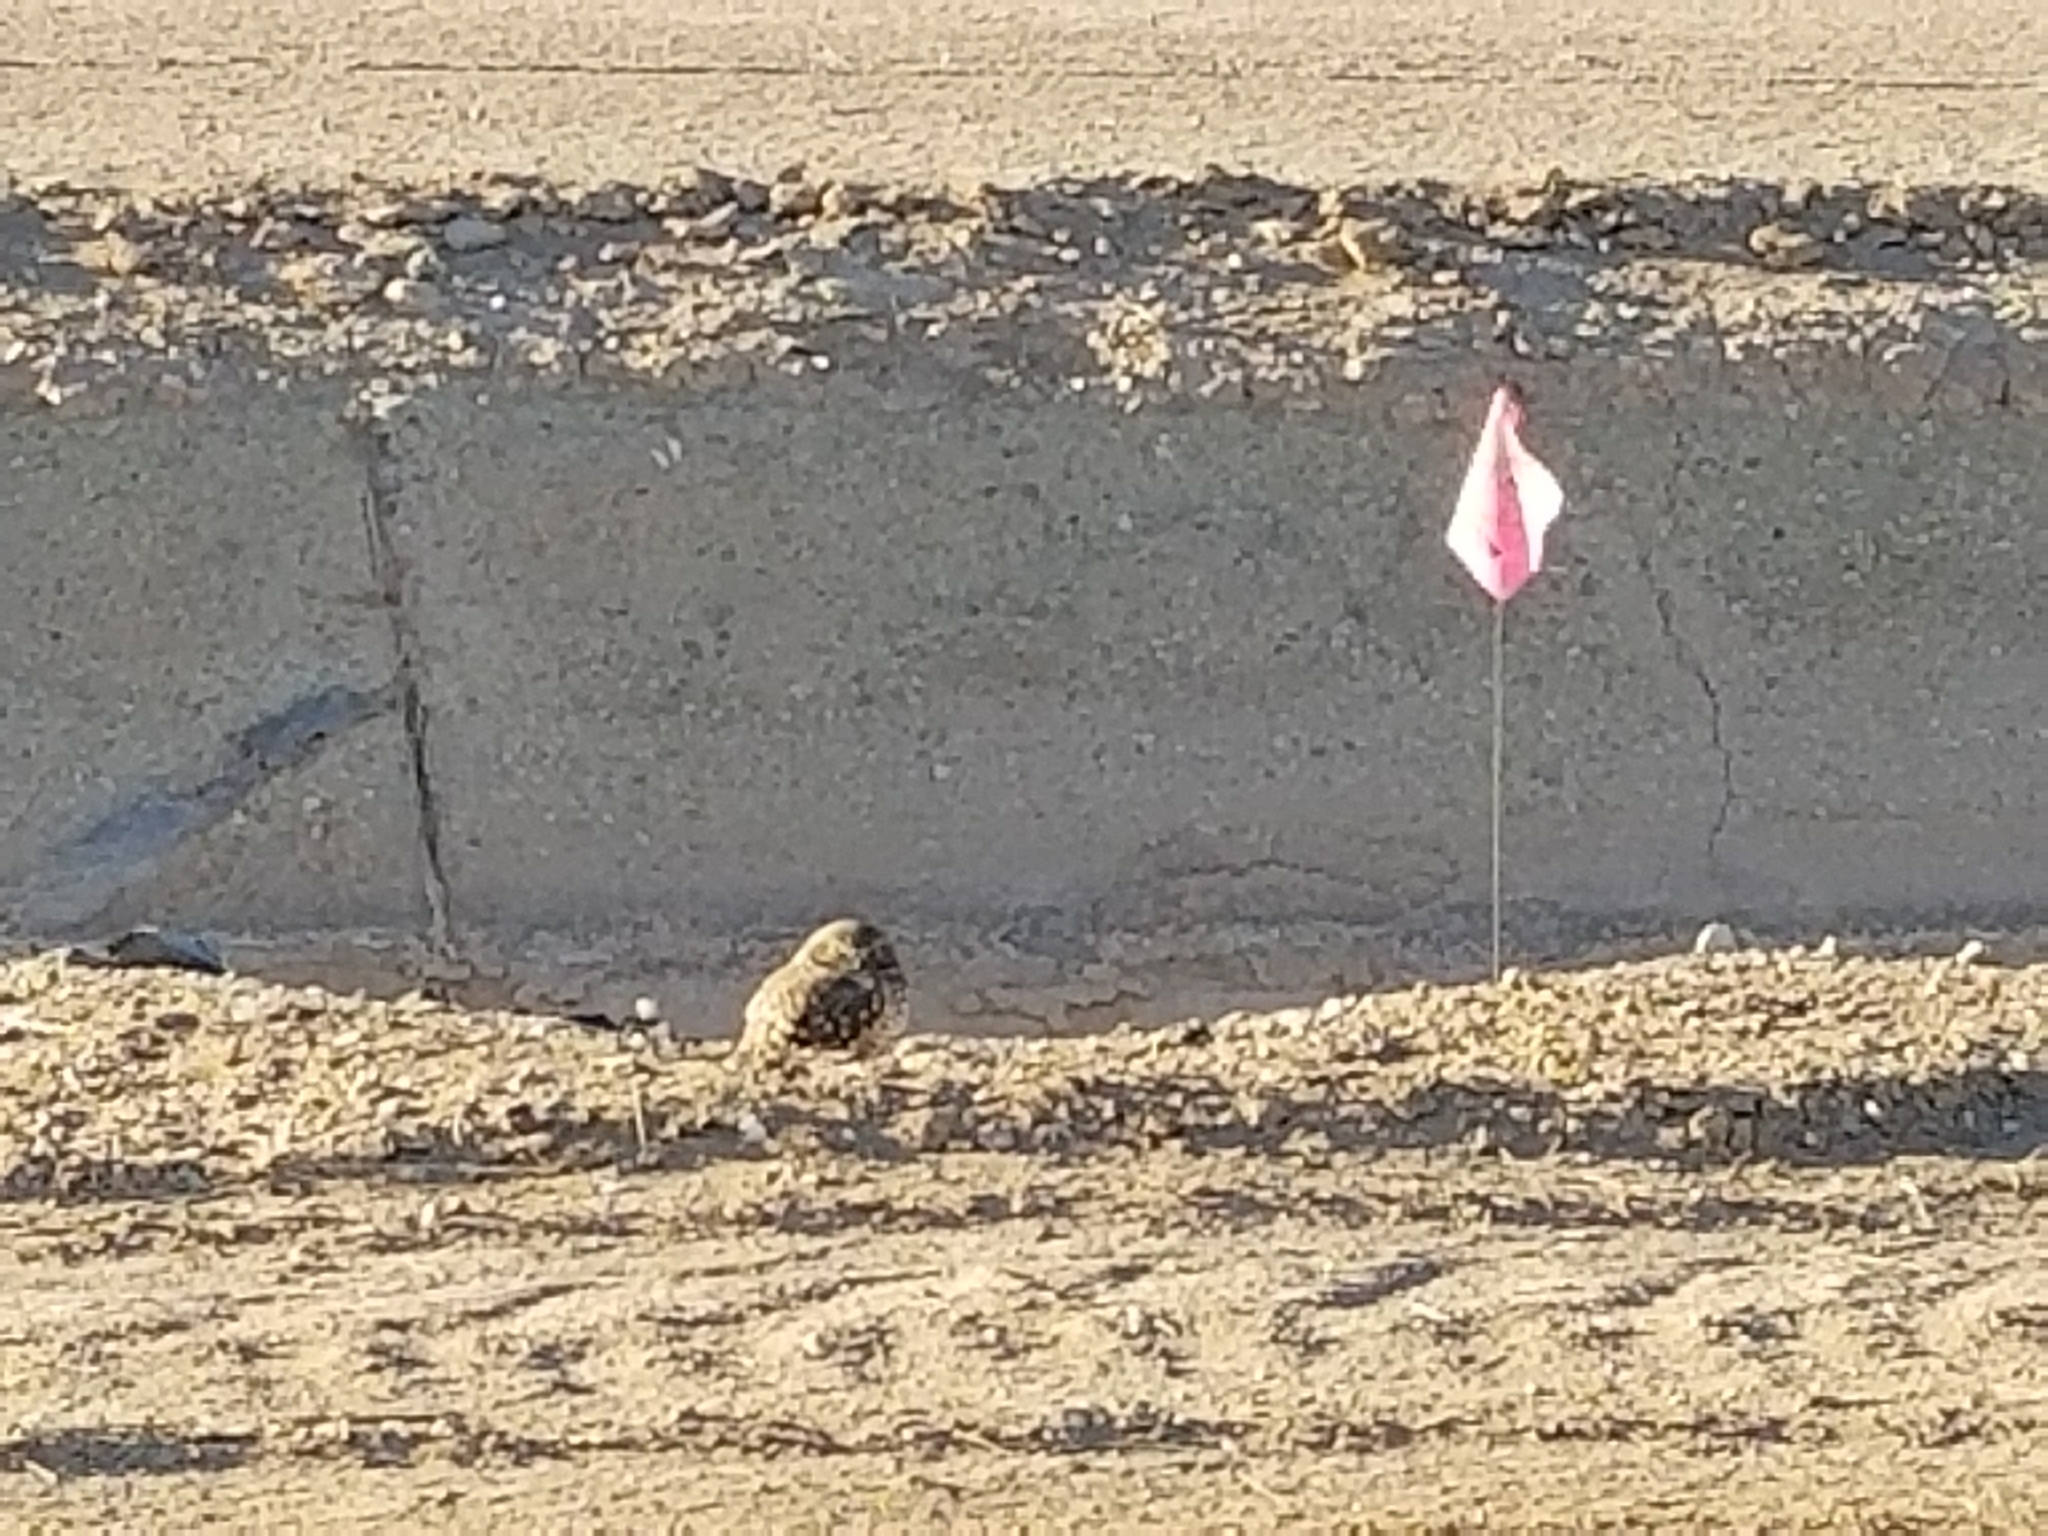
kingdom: Animalia
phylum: Chordata
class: Aves
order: Strigiformes
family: Strigidae
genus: Athene
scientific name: Athene cunicularia
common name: Burrowing owl
